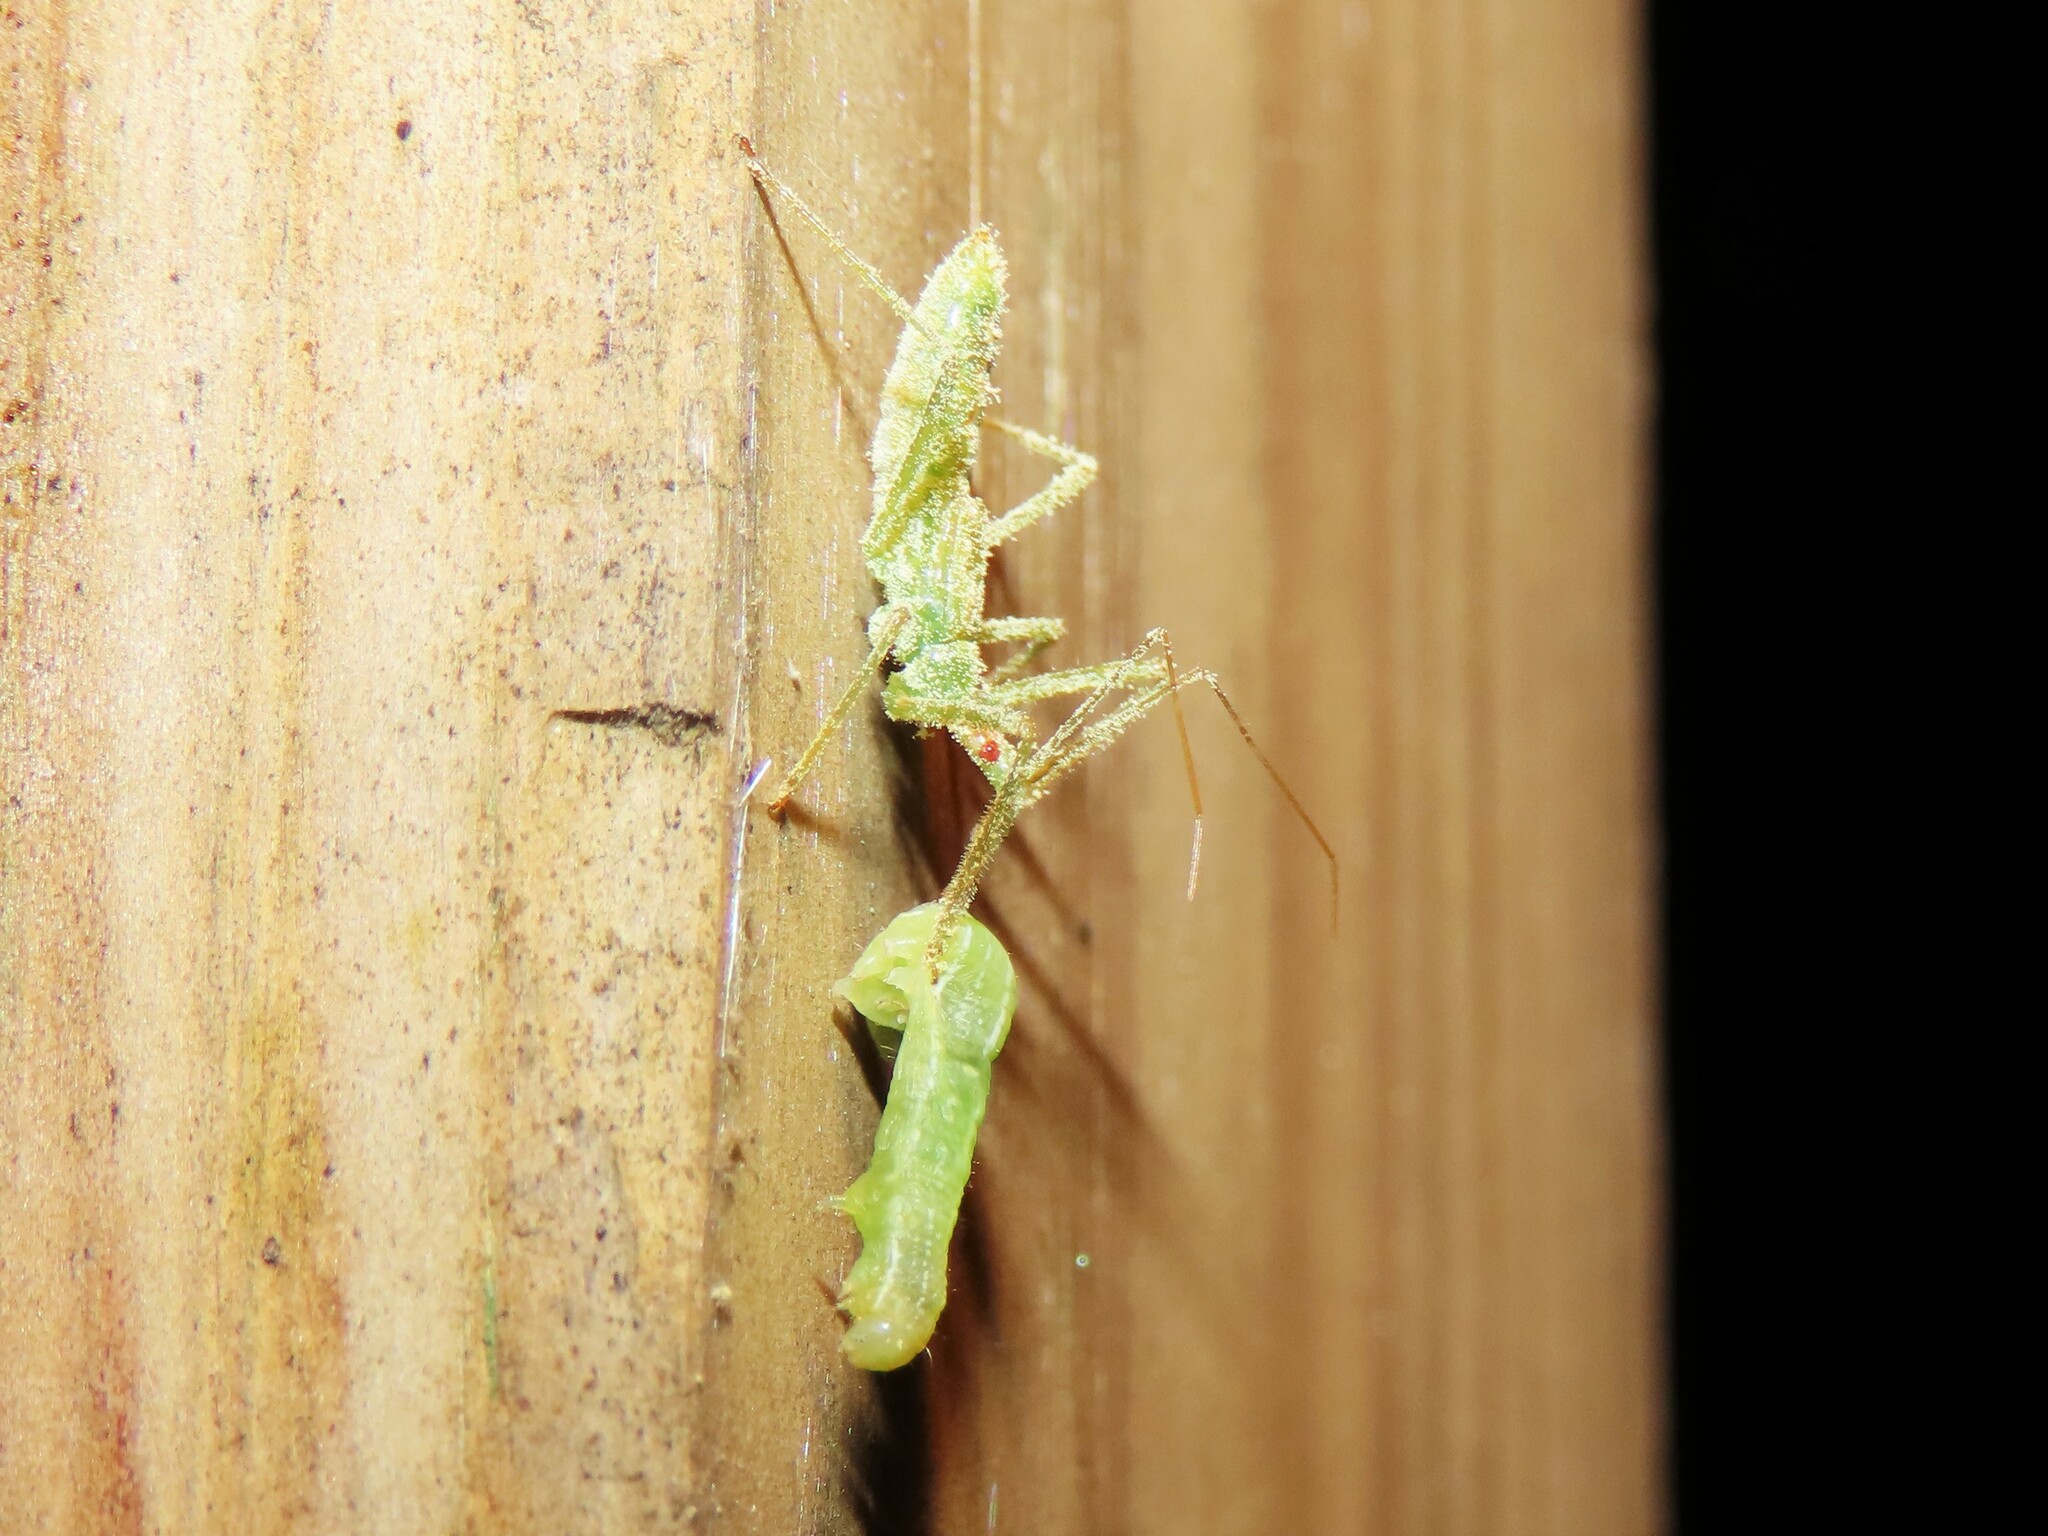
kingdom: Animalia
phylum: Arthropoda
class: Insecta
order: Hemiptera
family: Reduviidae
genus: Zelus
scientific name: Zelus luridus
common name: Pale green assassin bug
